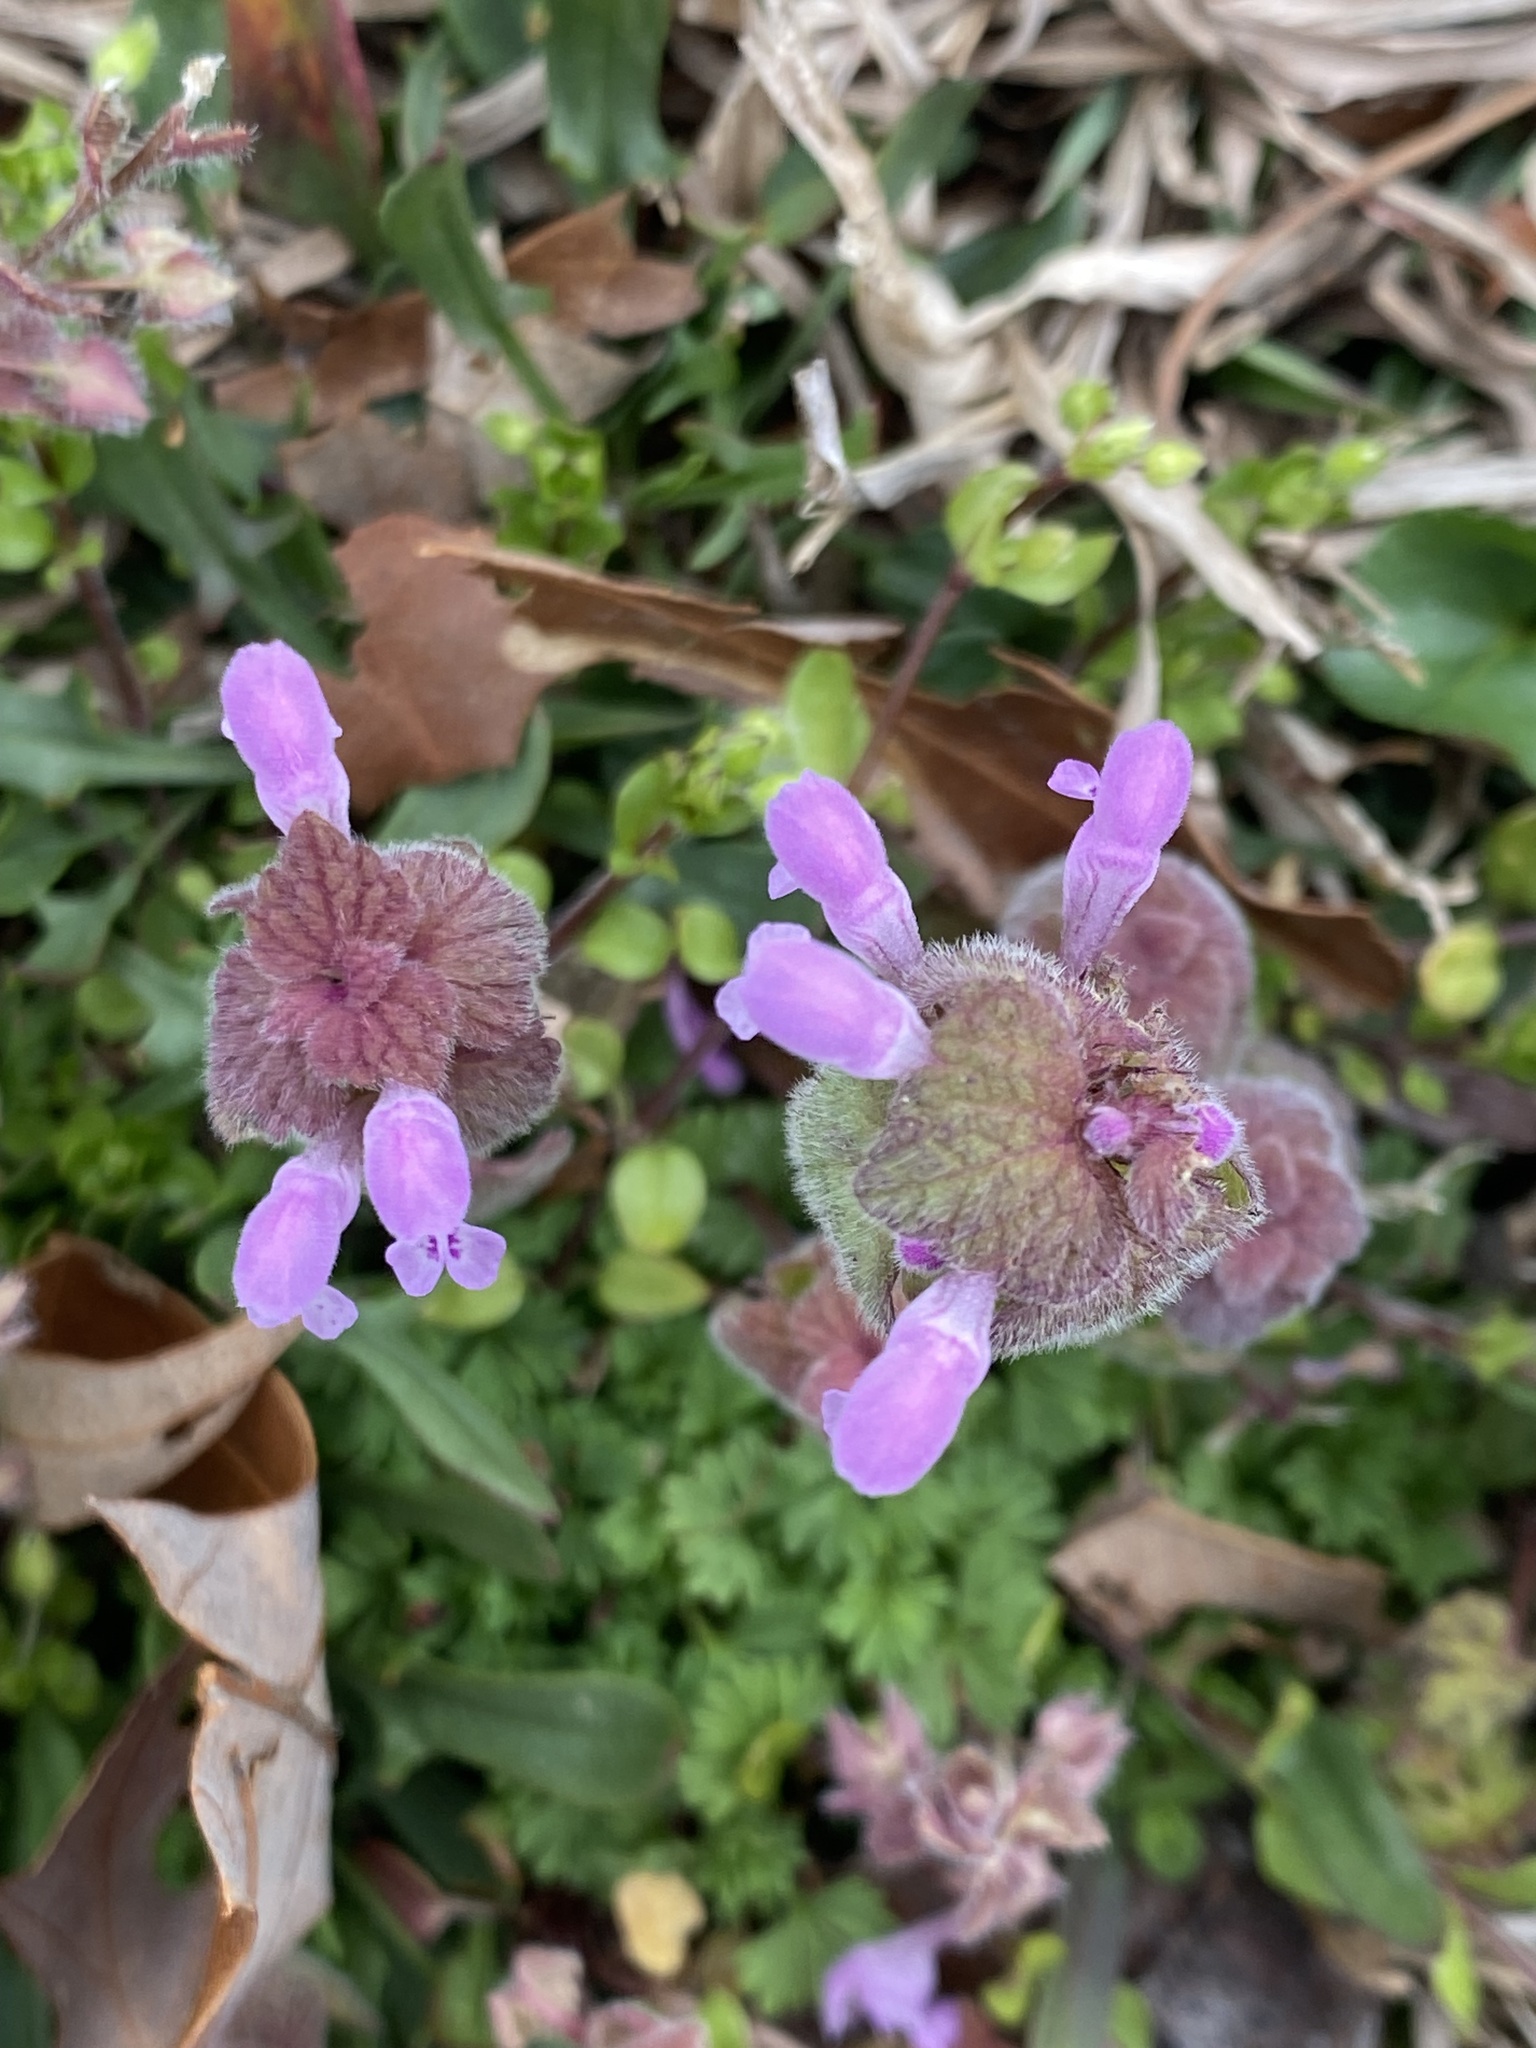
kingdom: Plantae
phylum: Tracheophyta
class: Magnoliopsida
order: Lamiales
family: Lamiaceae
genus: Lamium
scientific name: Lamium purpureum
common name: Red dead-nettle
